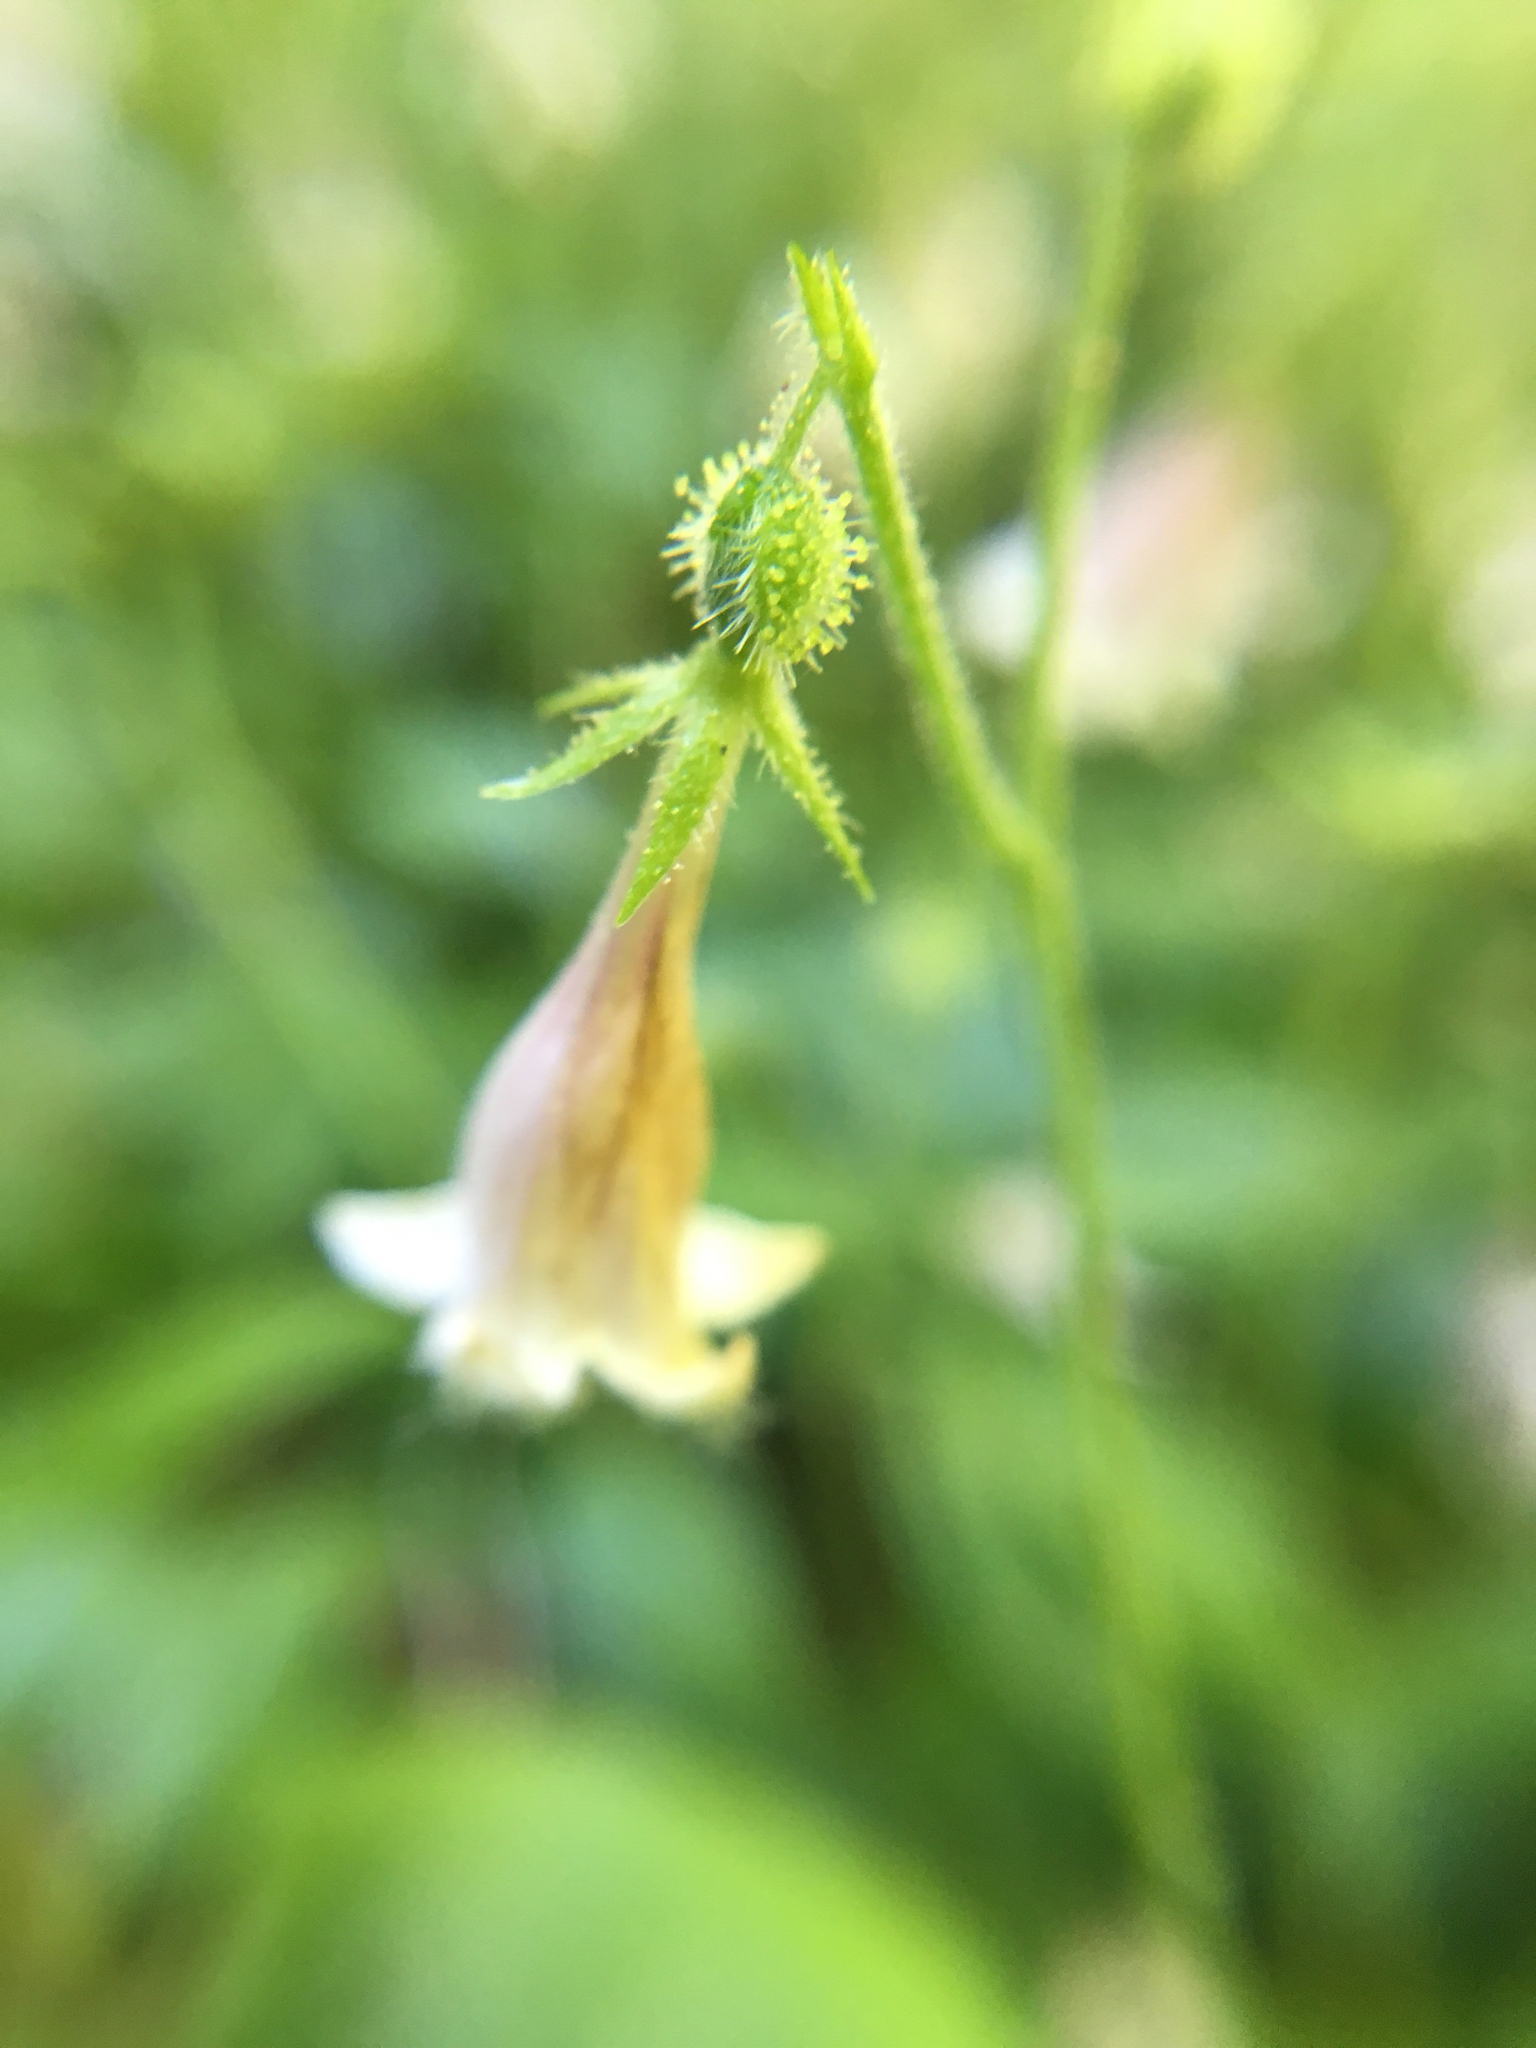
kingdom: Plantae
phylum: Tracheophyta
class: Magnoliopsida
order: Dipsacales
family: Caprifoliaceae
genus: Linnaea
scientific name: Linnaea borealis
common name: Twinflower
